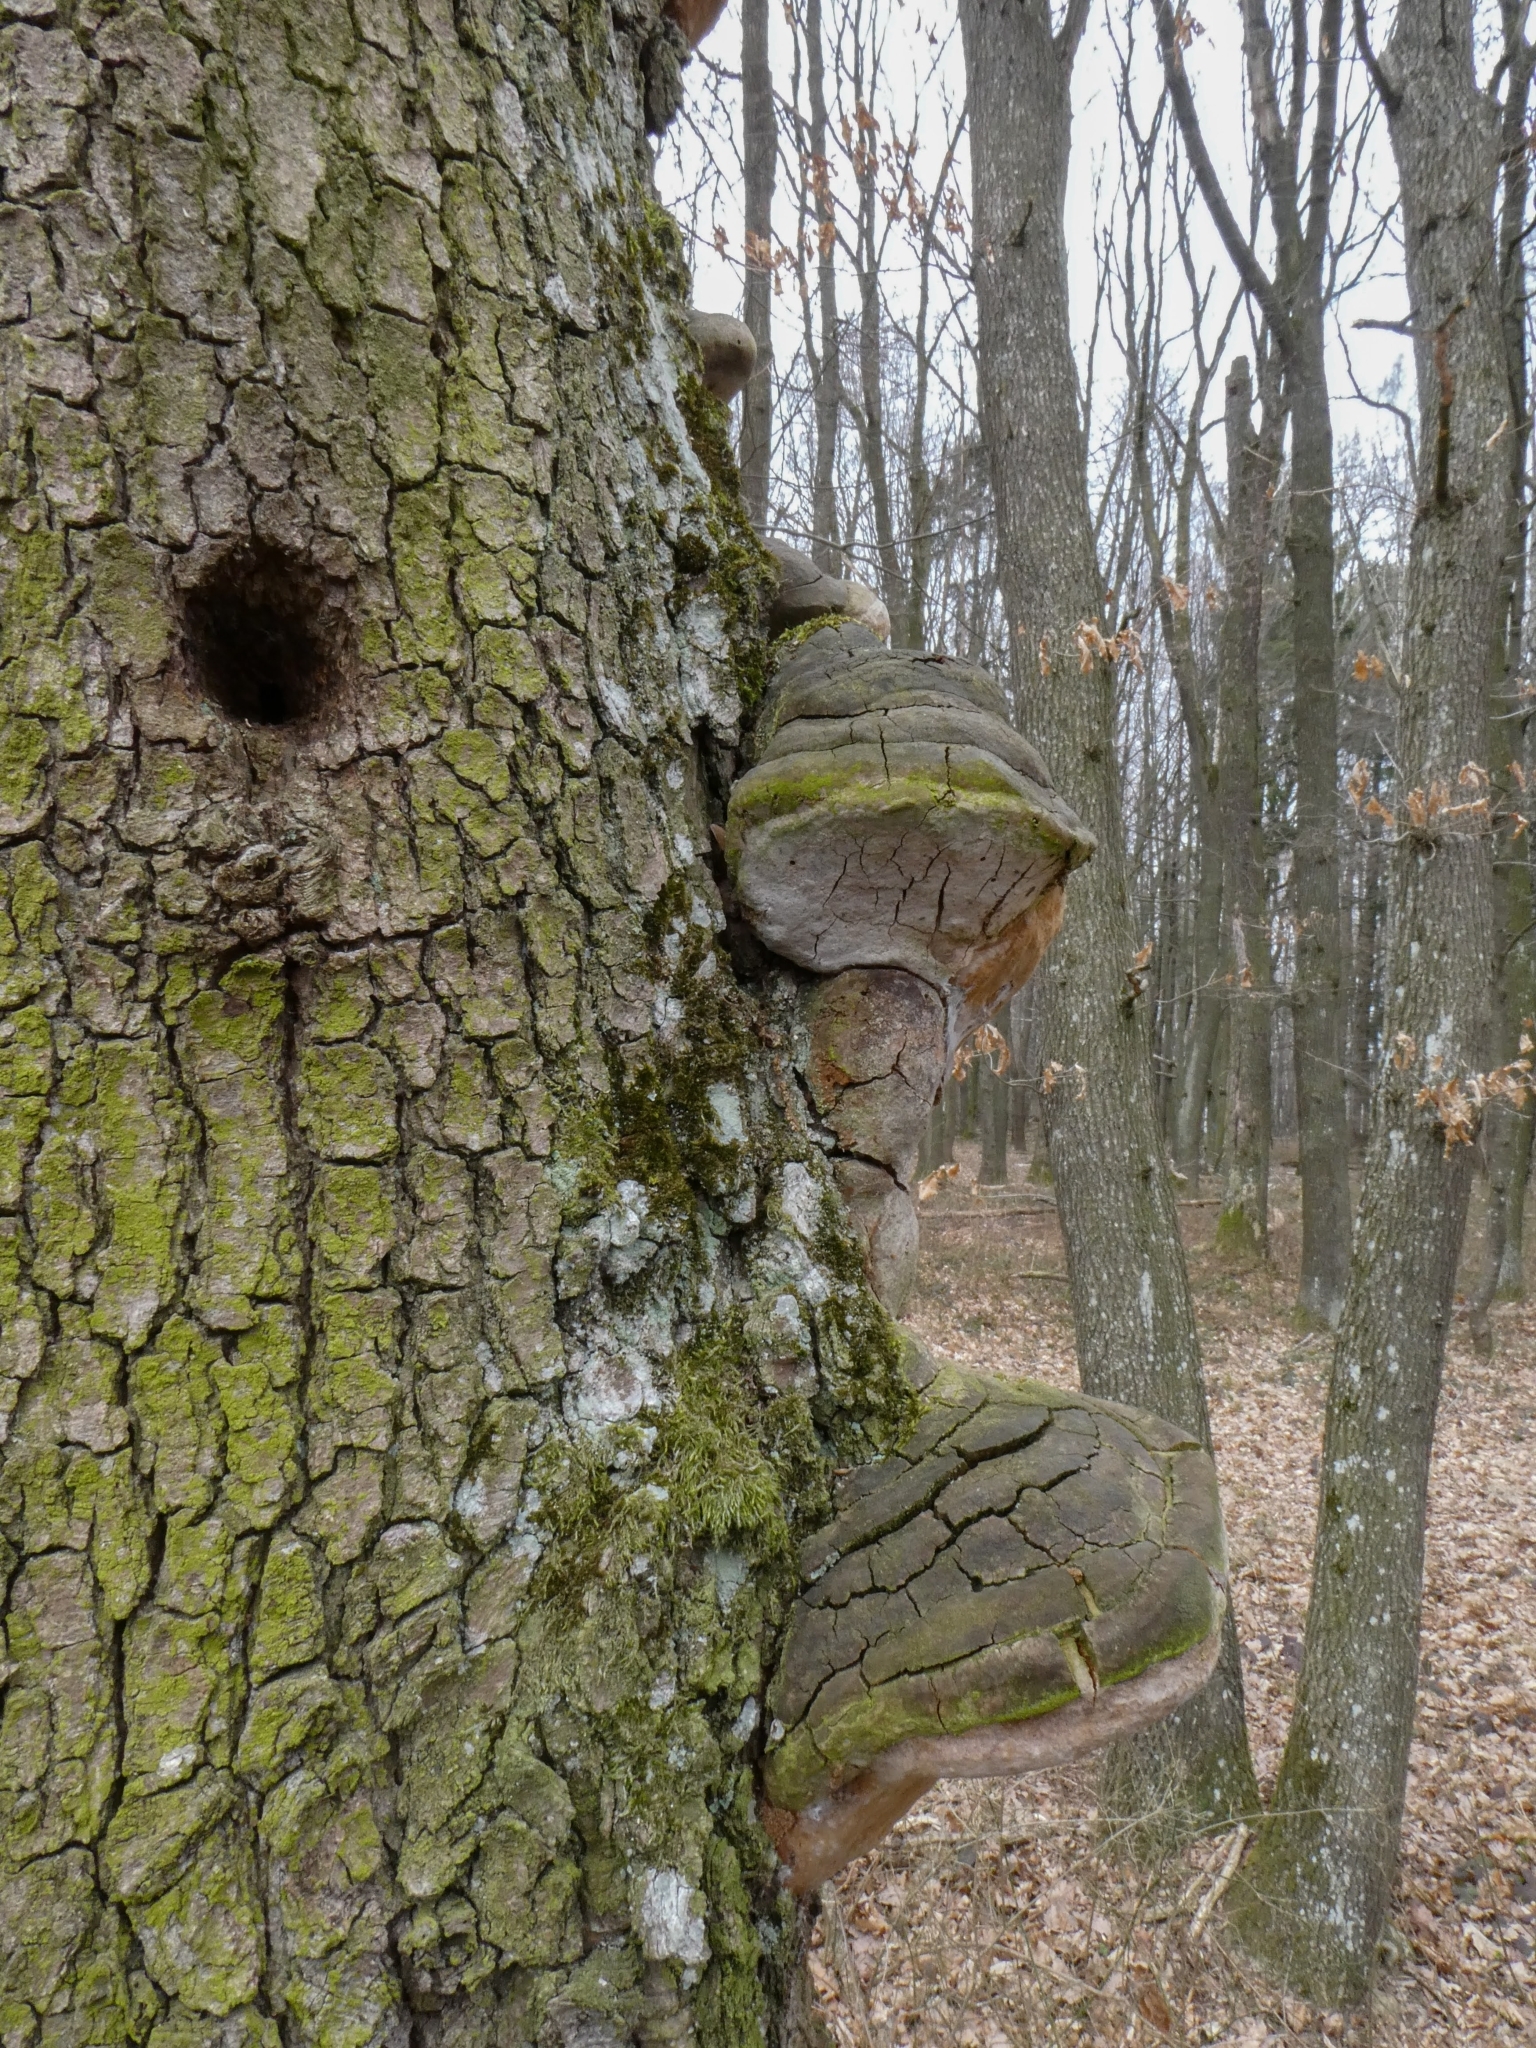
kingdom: Fungi
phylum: Basidiomycota
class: Agaricomycetes
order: Hymenochaetales
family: Hymenochaetaceae
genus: Fomitiporia
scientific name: Fomitiporia robusta
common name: Robust bracket
